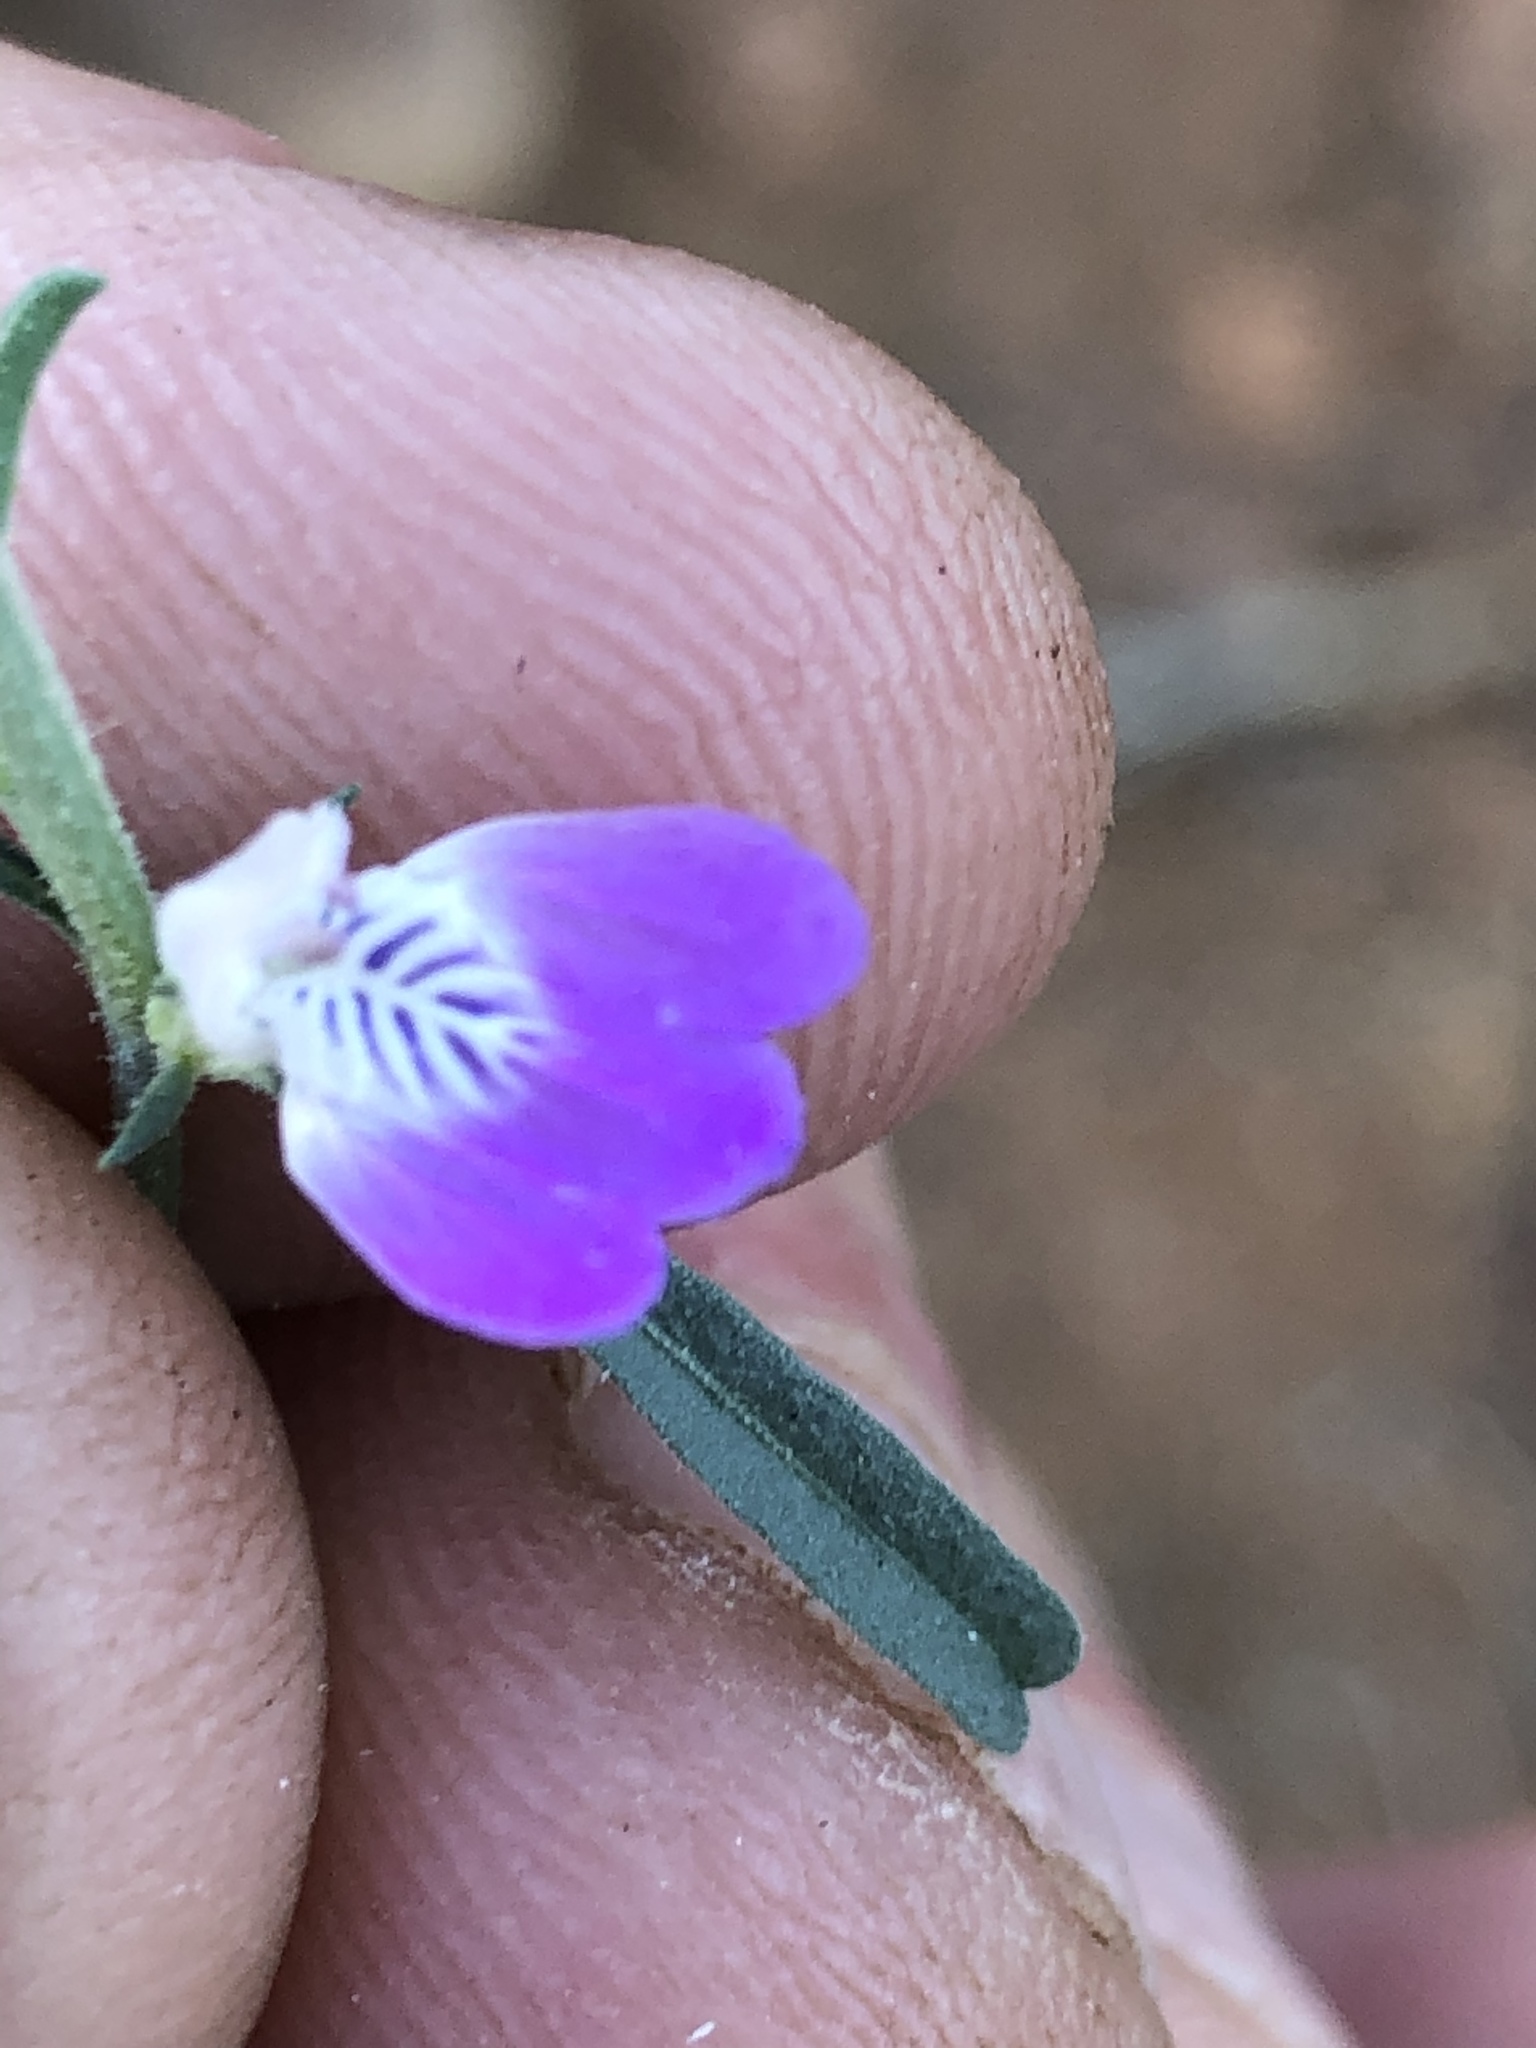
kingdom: Plantae
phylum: Tracheophyta
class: Magnoliopsida
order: Lamiales
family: Acanthaceae
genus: Pogonospermum
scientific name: Pogonospermum
